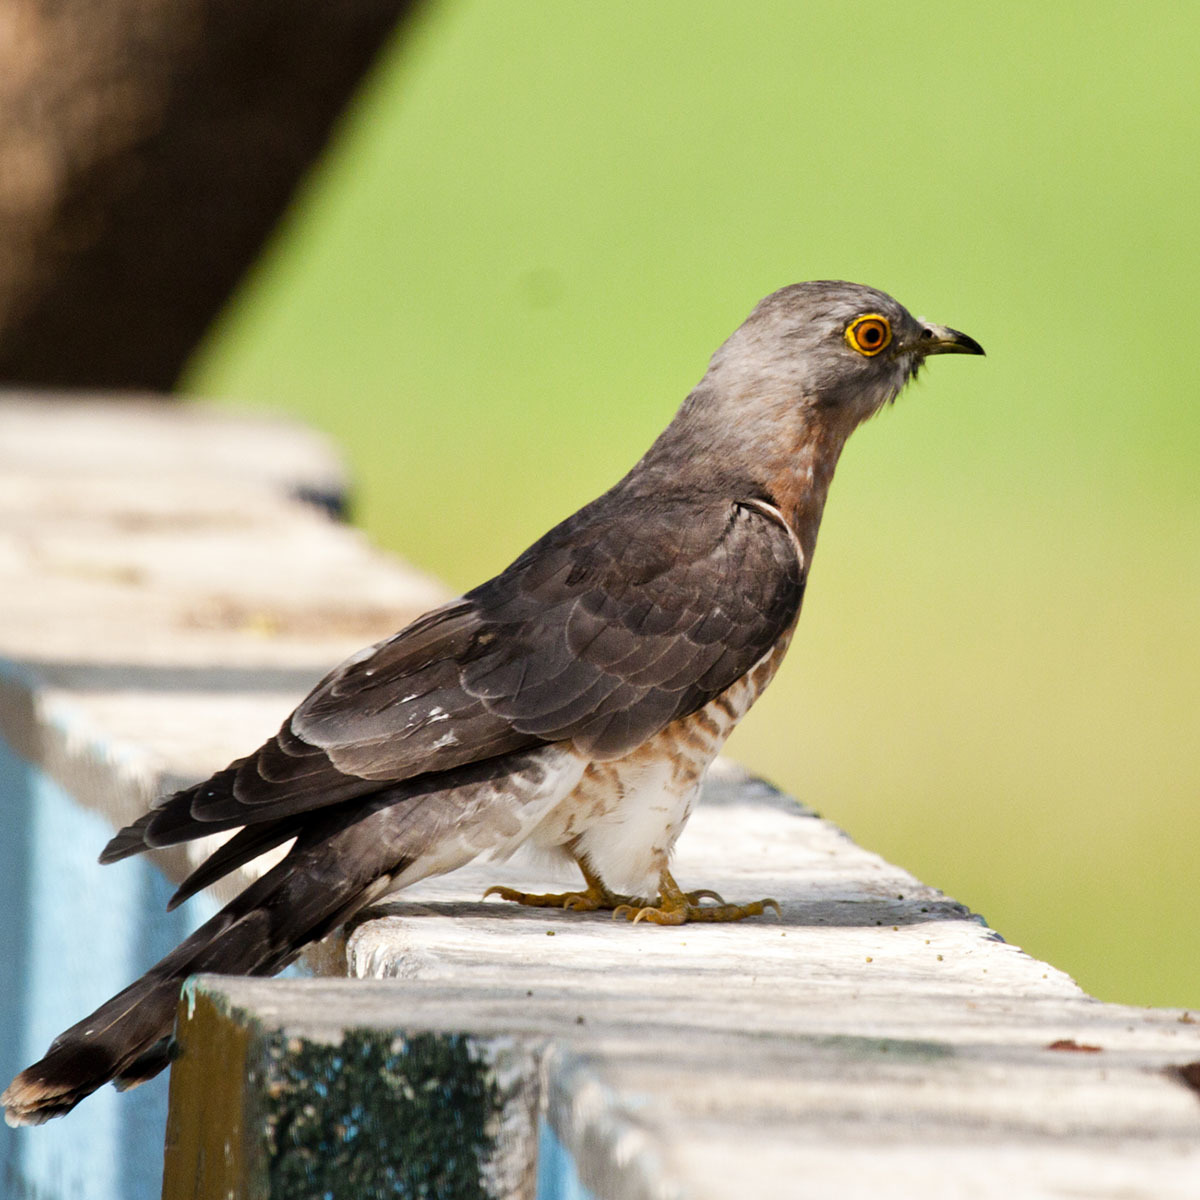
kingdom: Animalia
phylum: Chordata
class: Aves
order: Cuculiformes
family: Cuculidae
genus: Cuculus
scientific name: Cuculus varius
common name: Common hawk cuckoo
